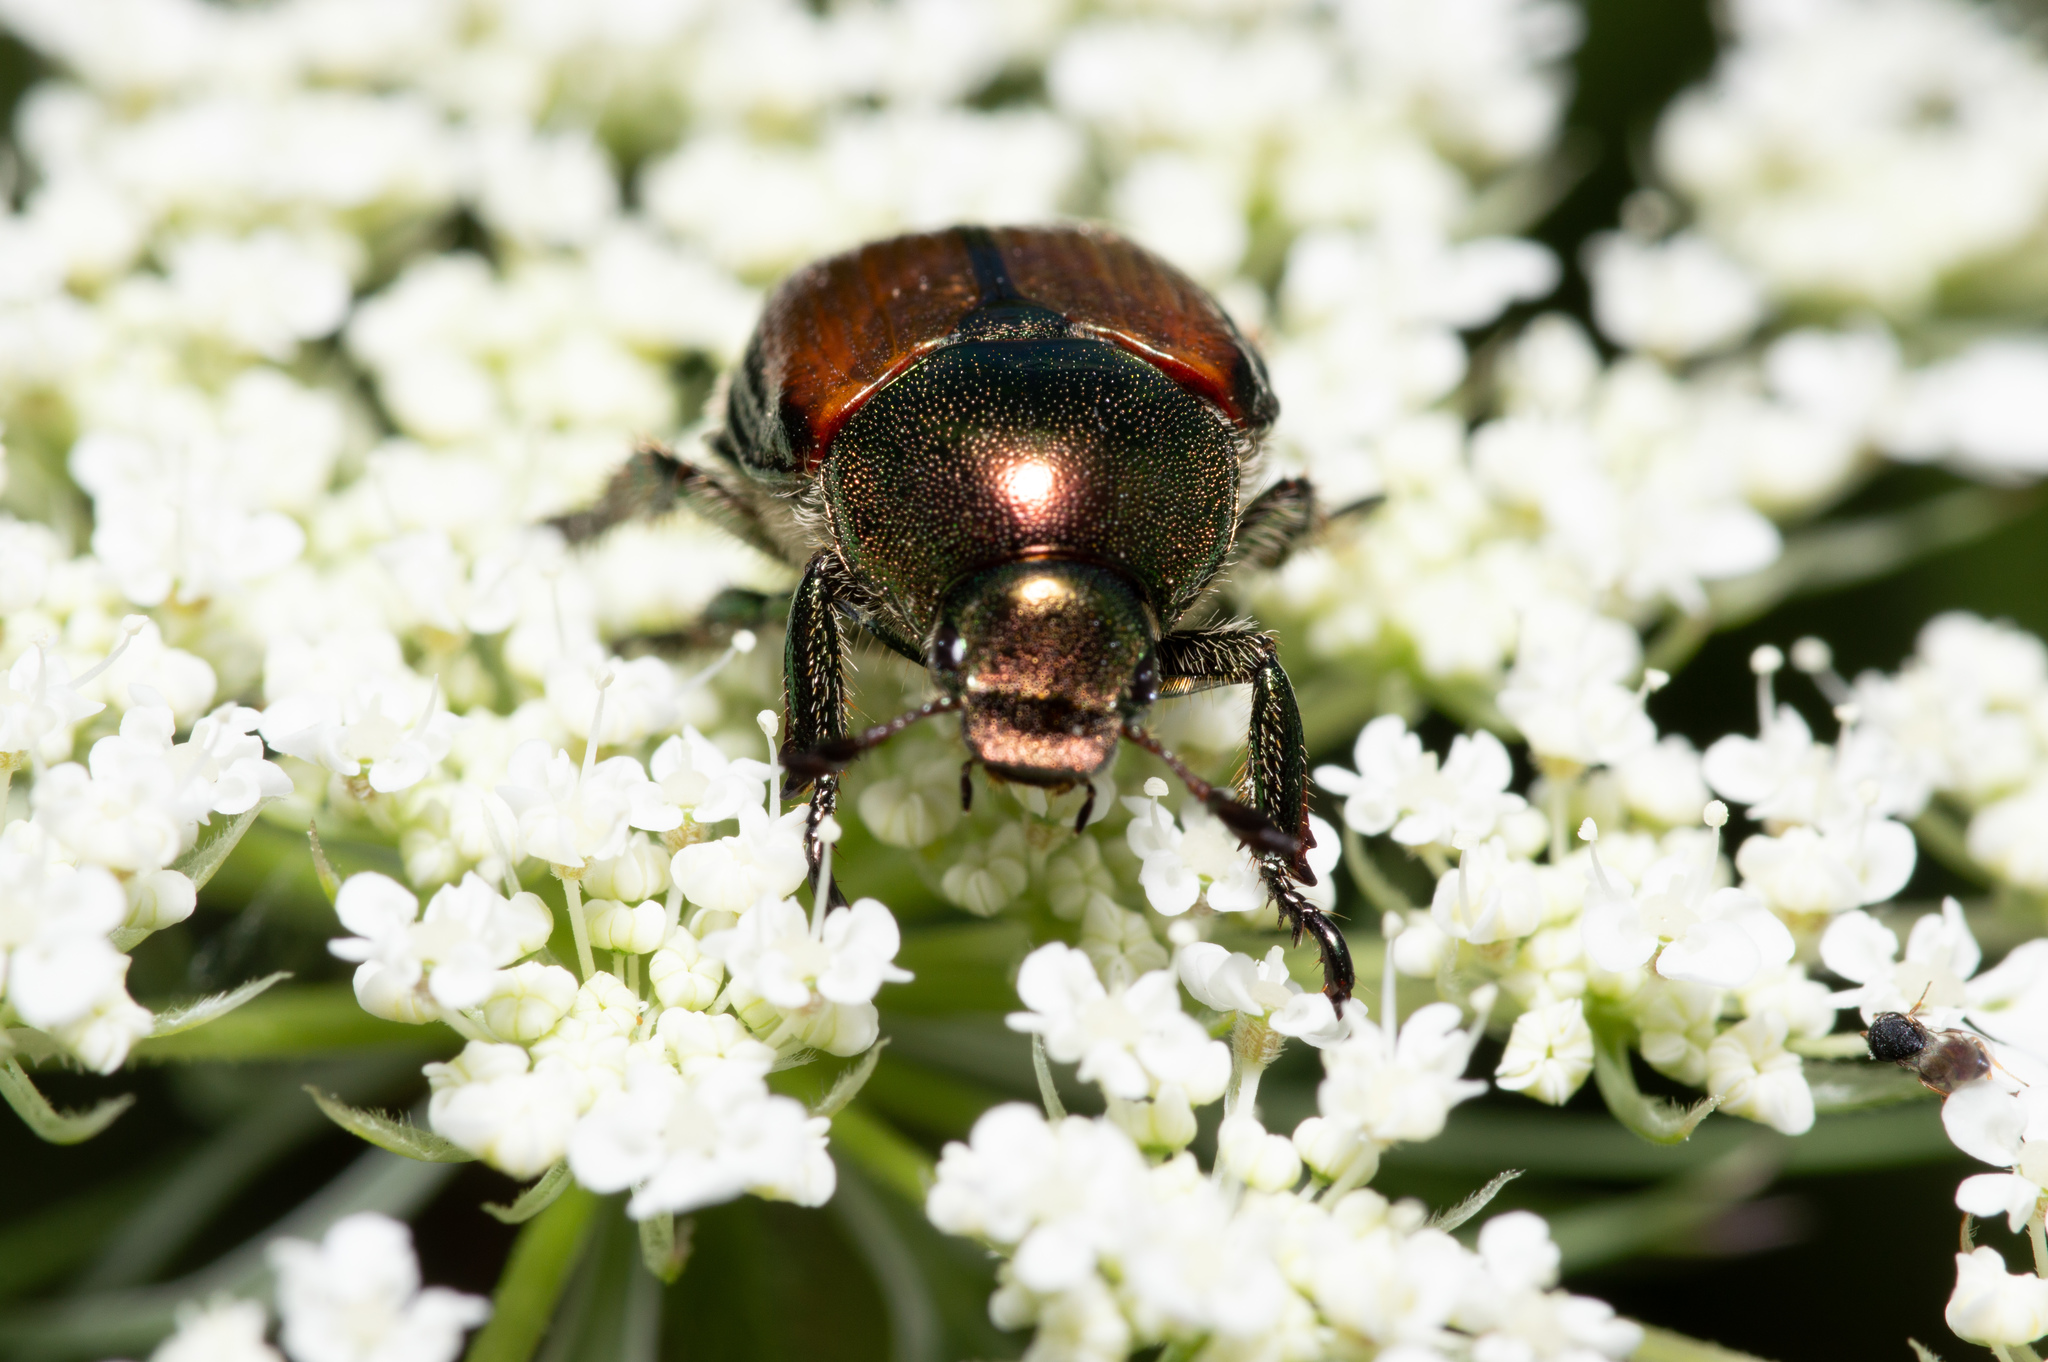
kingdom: Animalia
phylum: Arthropoda
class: Insecta
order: Coleoptera
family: Scarabaeidae
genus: Popillia
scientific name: Popillia japonica
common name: Japanese beetle
